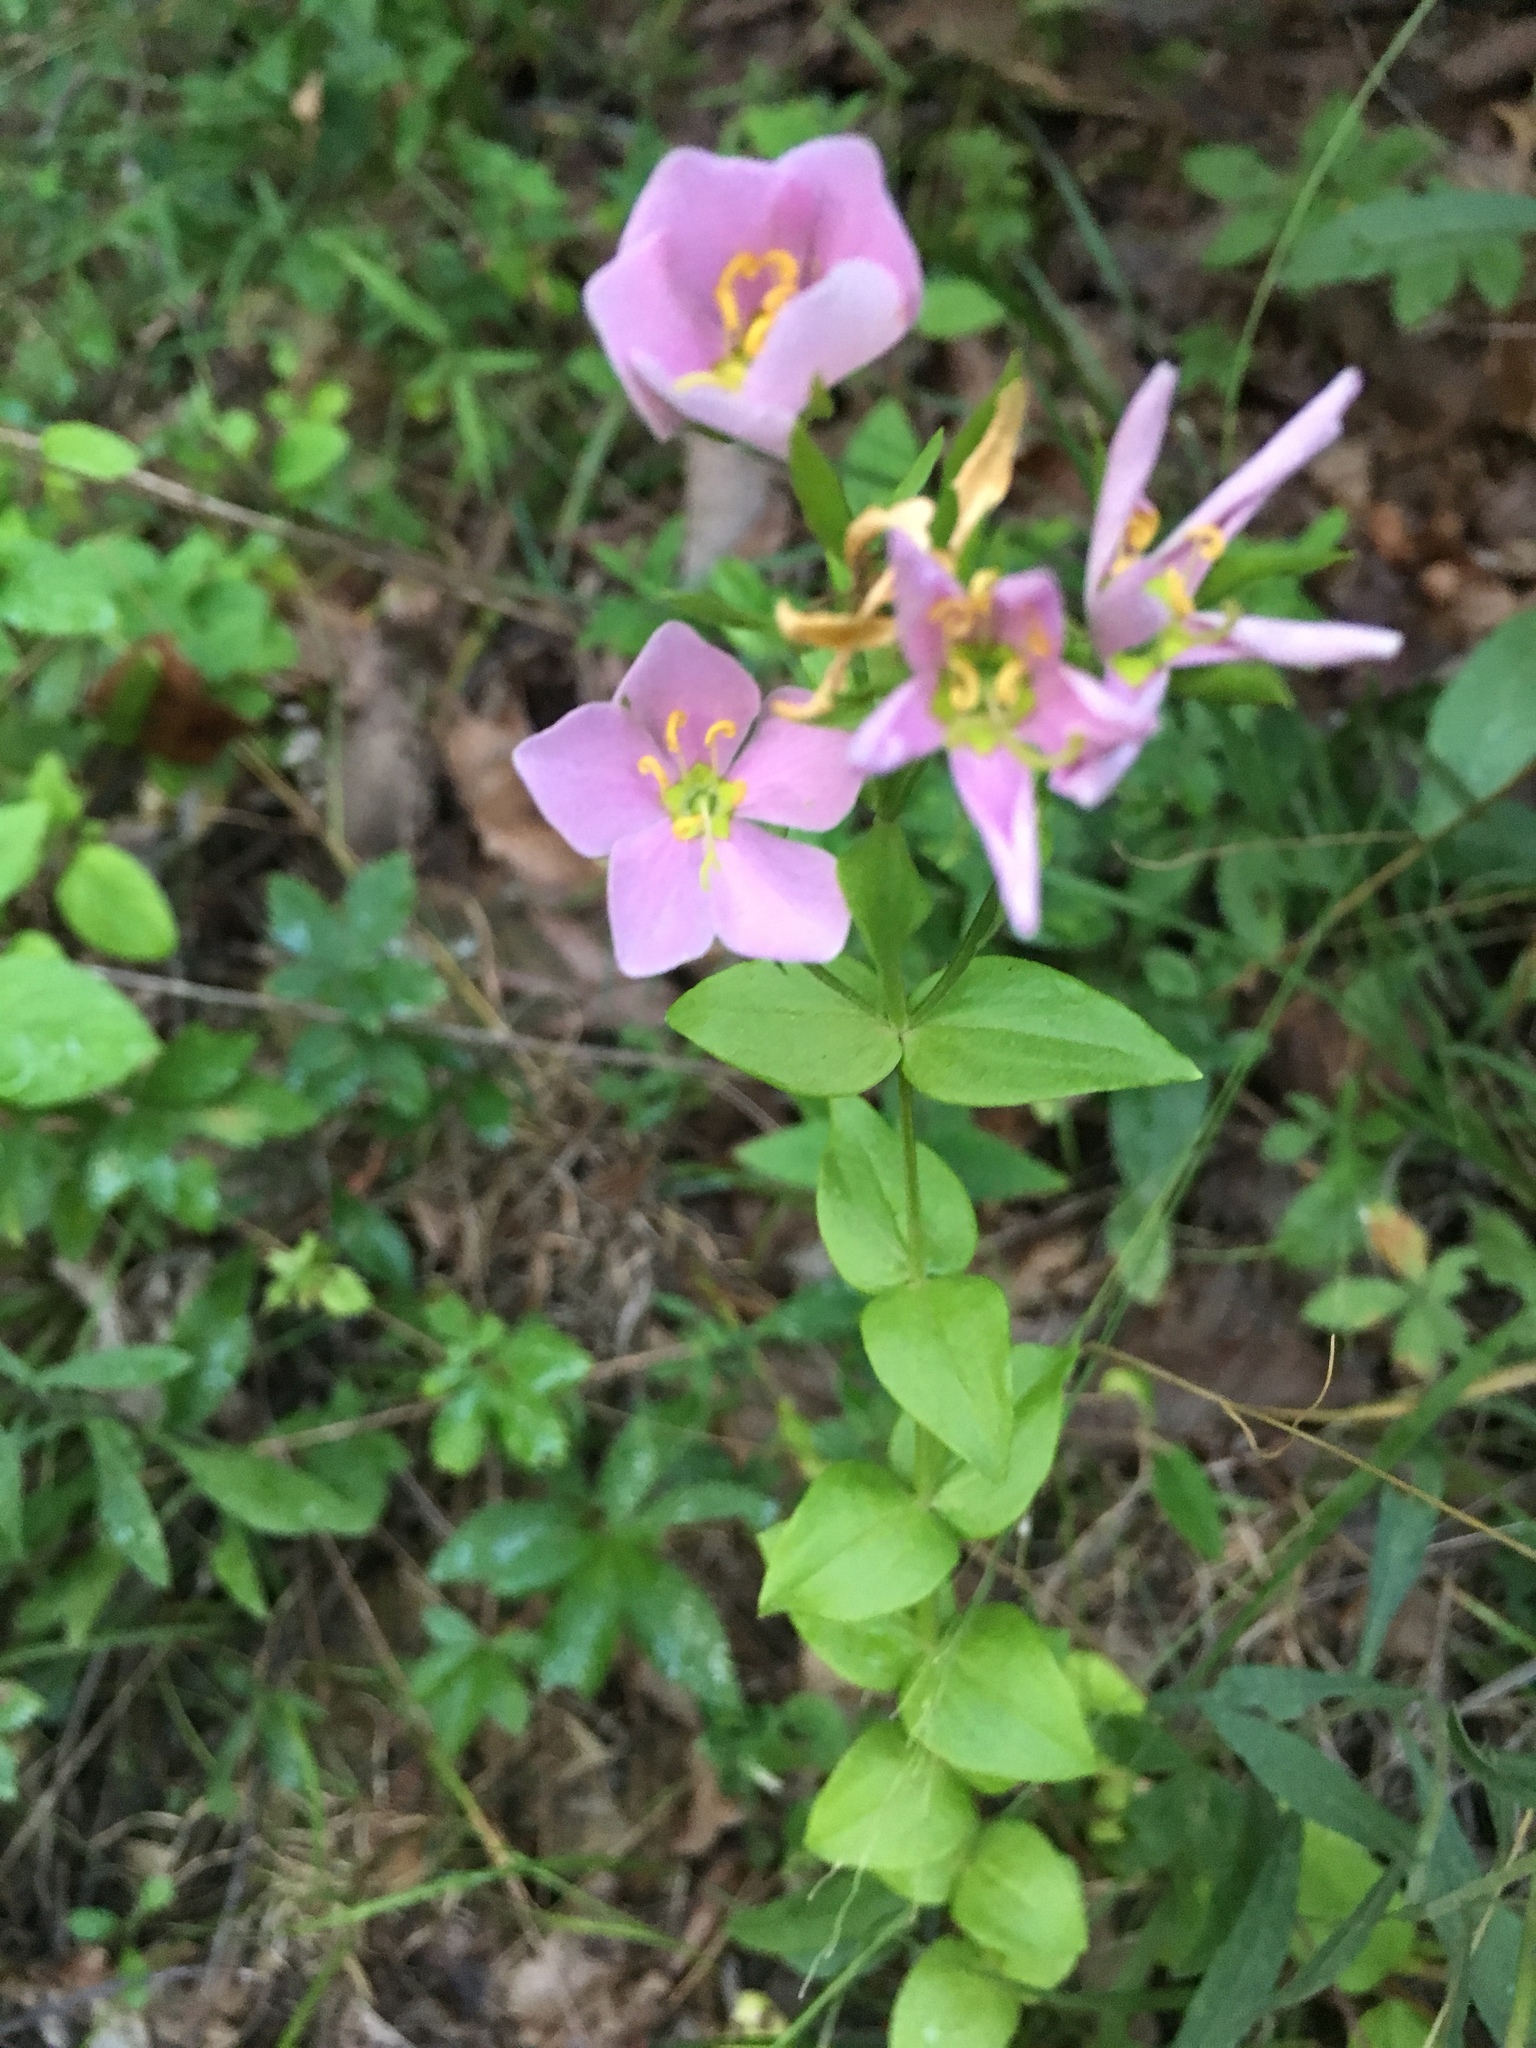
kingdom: Plantae
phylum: Tracheophyta
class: Magnoliopsida
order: Gentianales
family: Gentianaceae
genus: Sabatia
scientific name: Sabatia angularis
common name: Rose-pink
